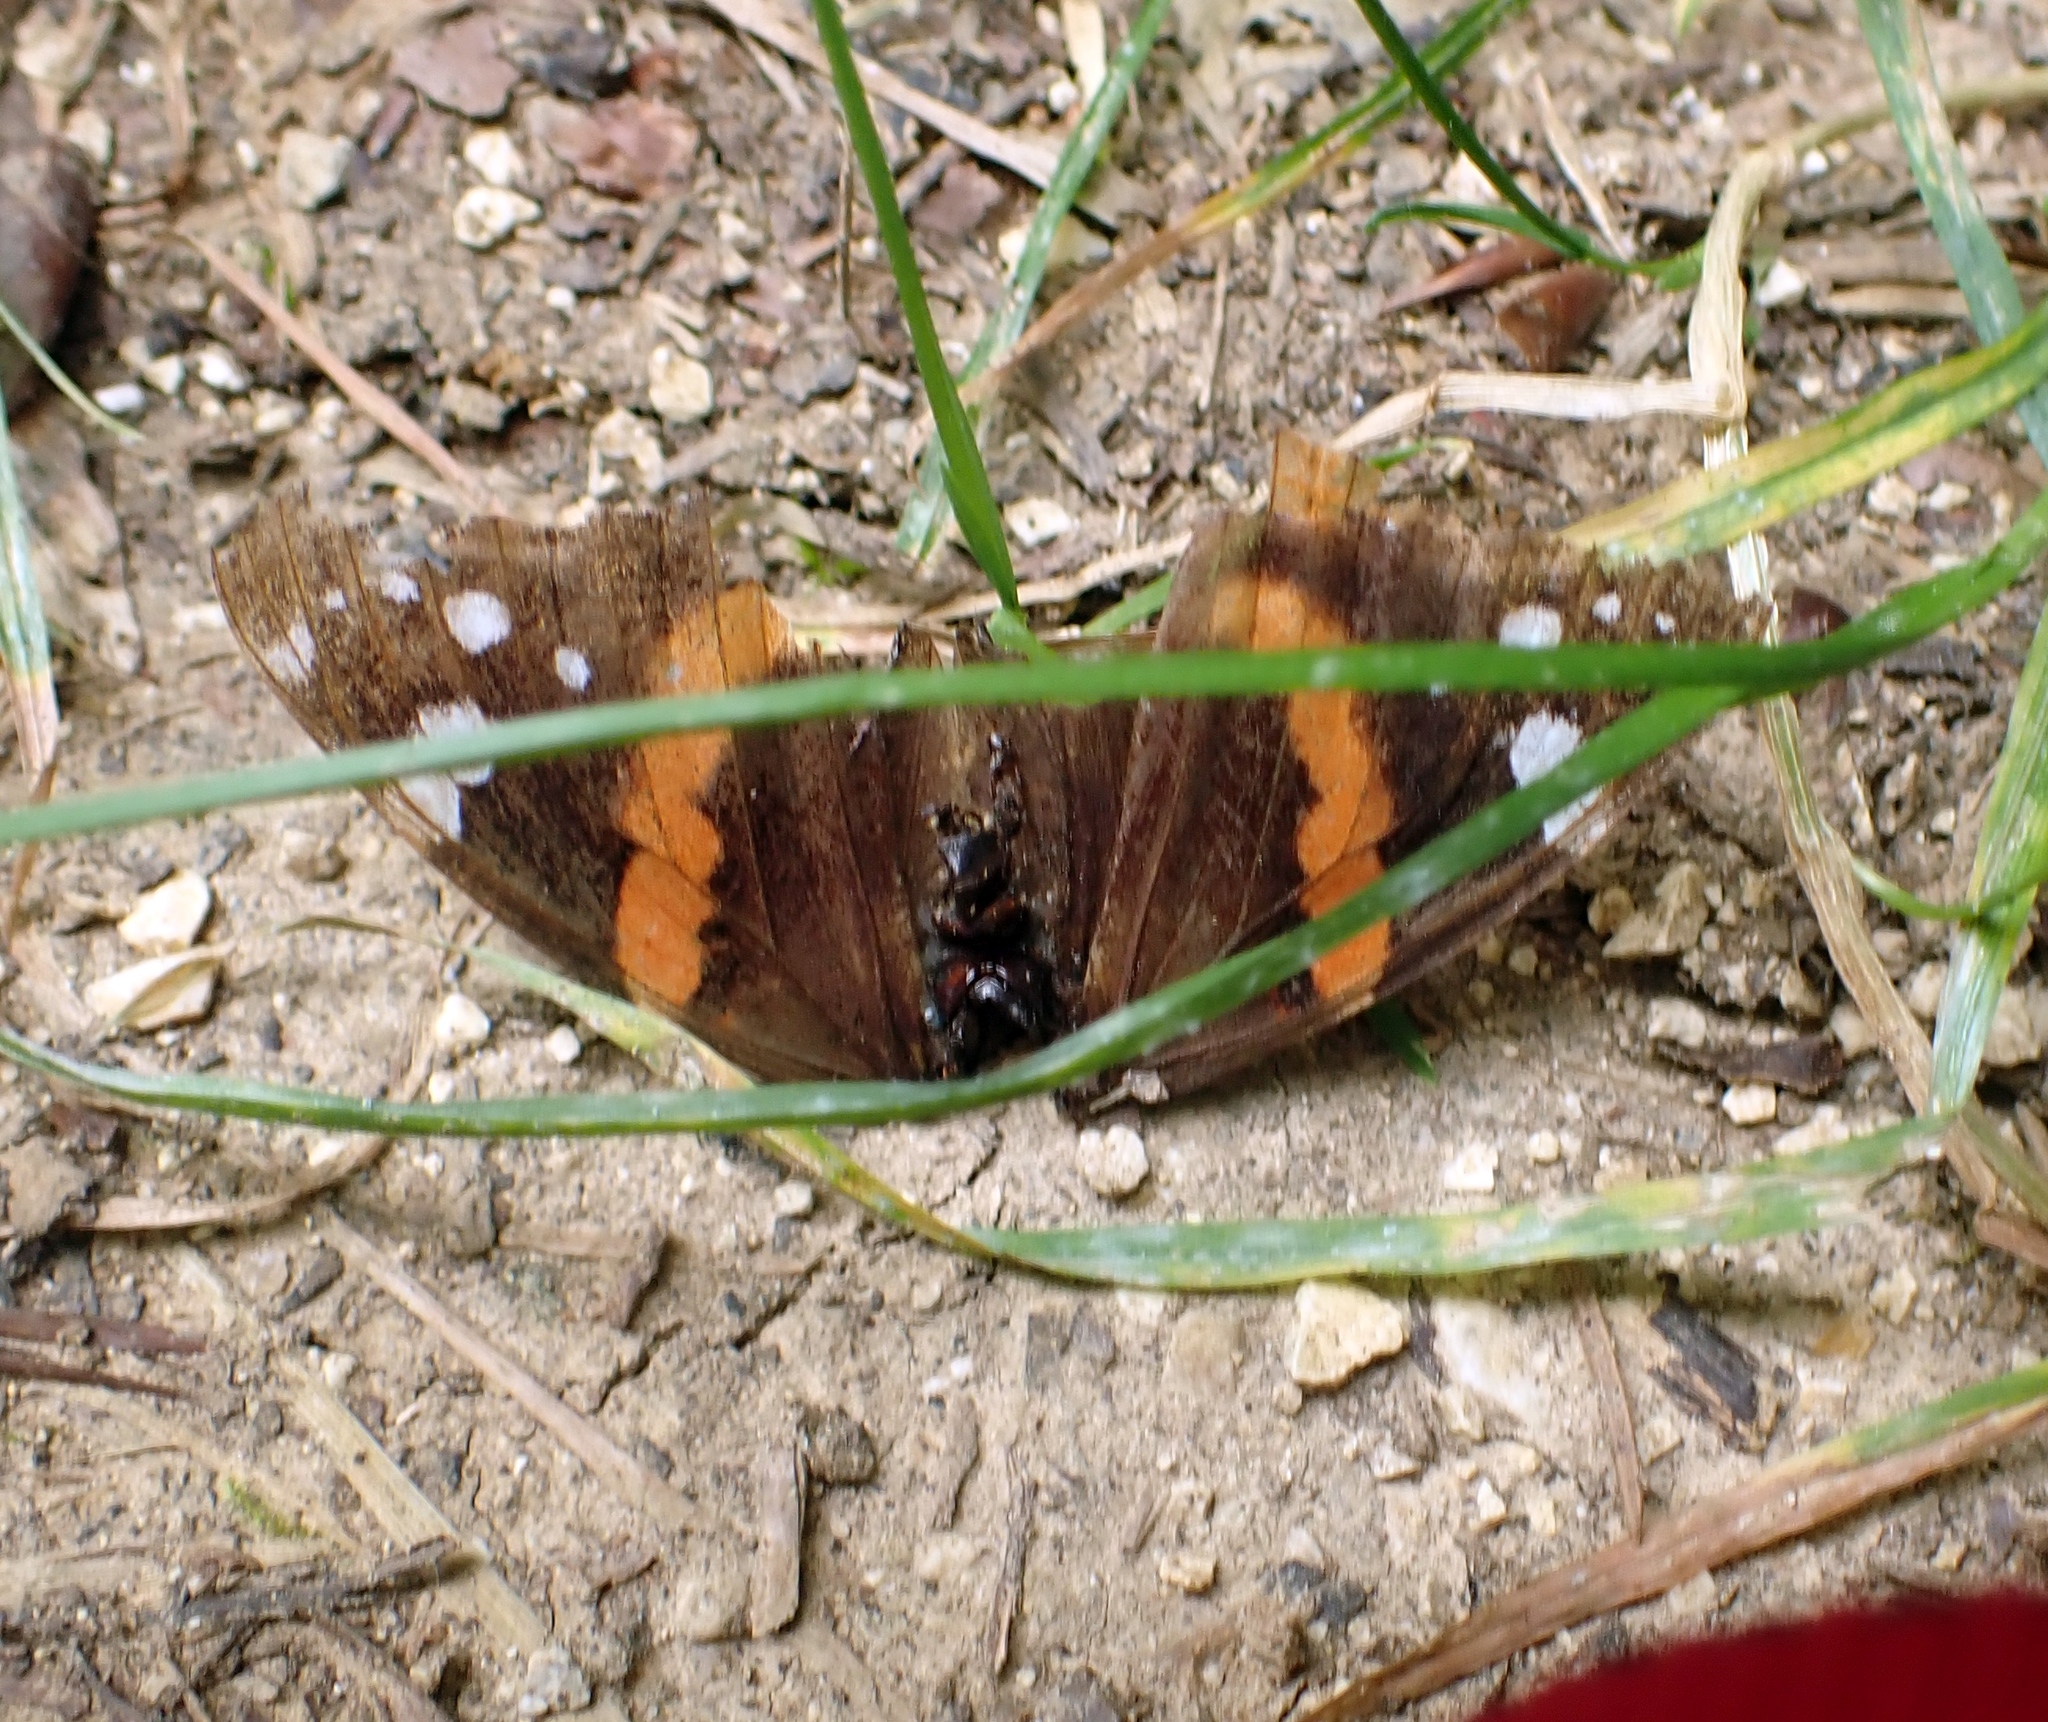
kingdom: Animalia
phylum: Arthropoda
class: Insecta
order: Lepidoptera
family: Nymphalidae
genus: Vanessa
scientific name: Vanessa atalanta
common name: Red admiral
